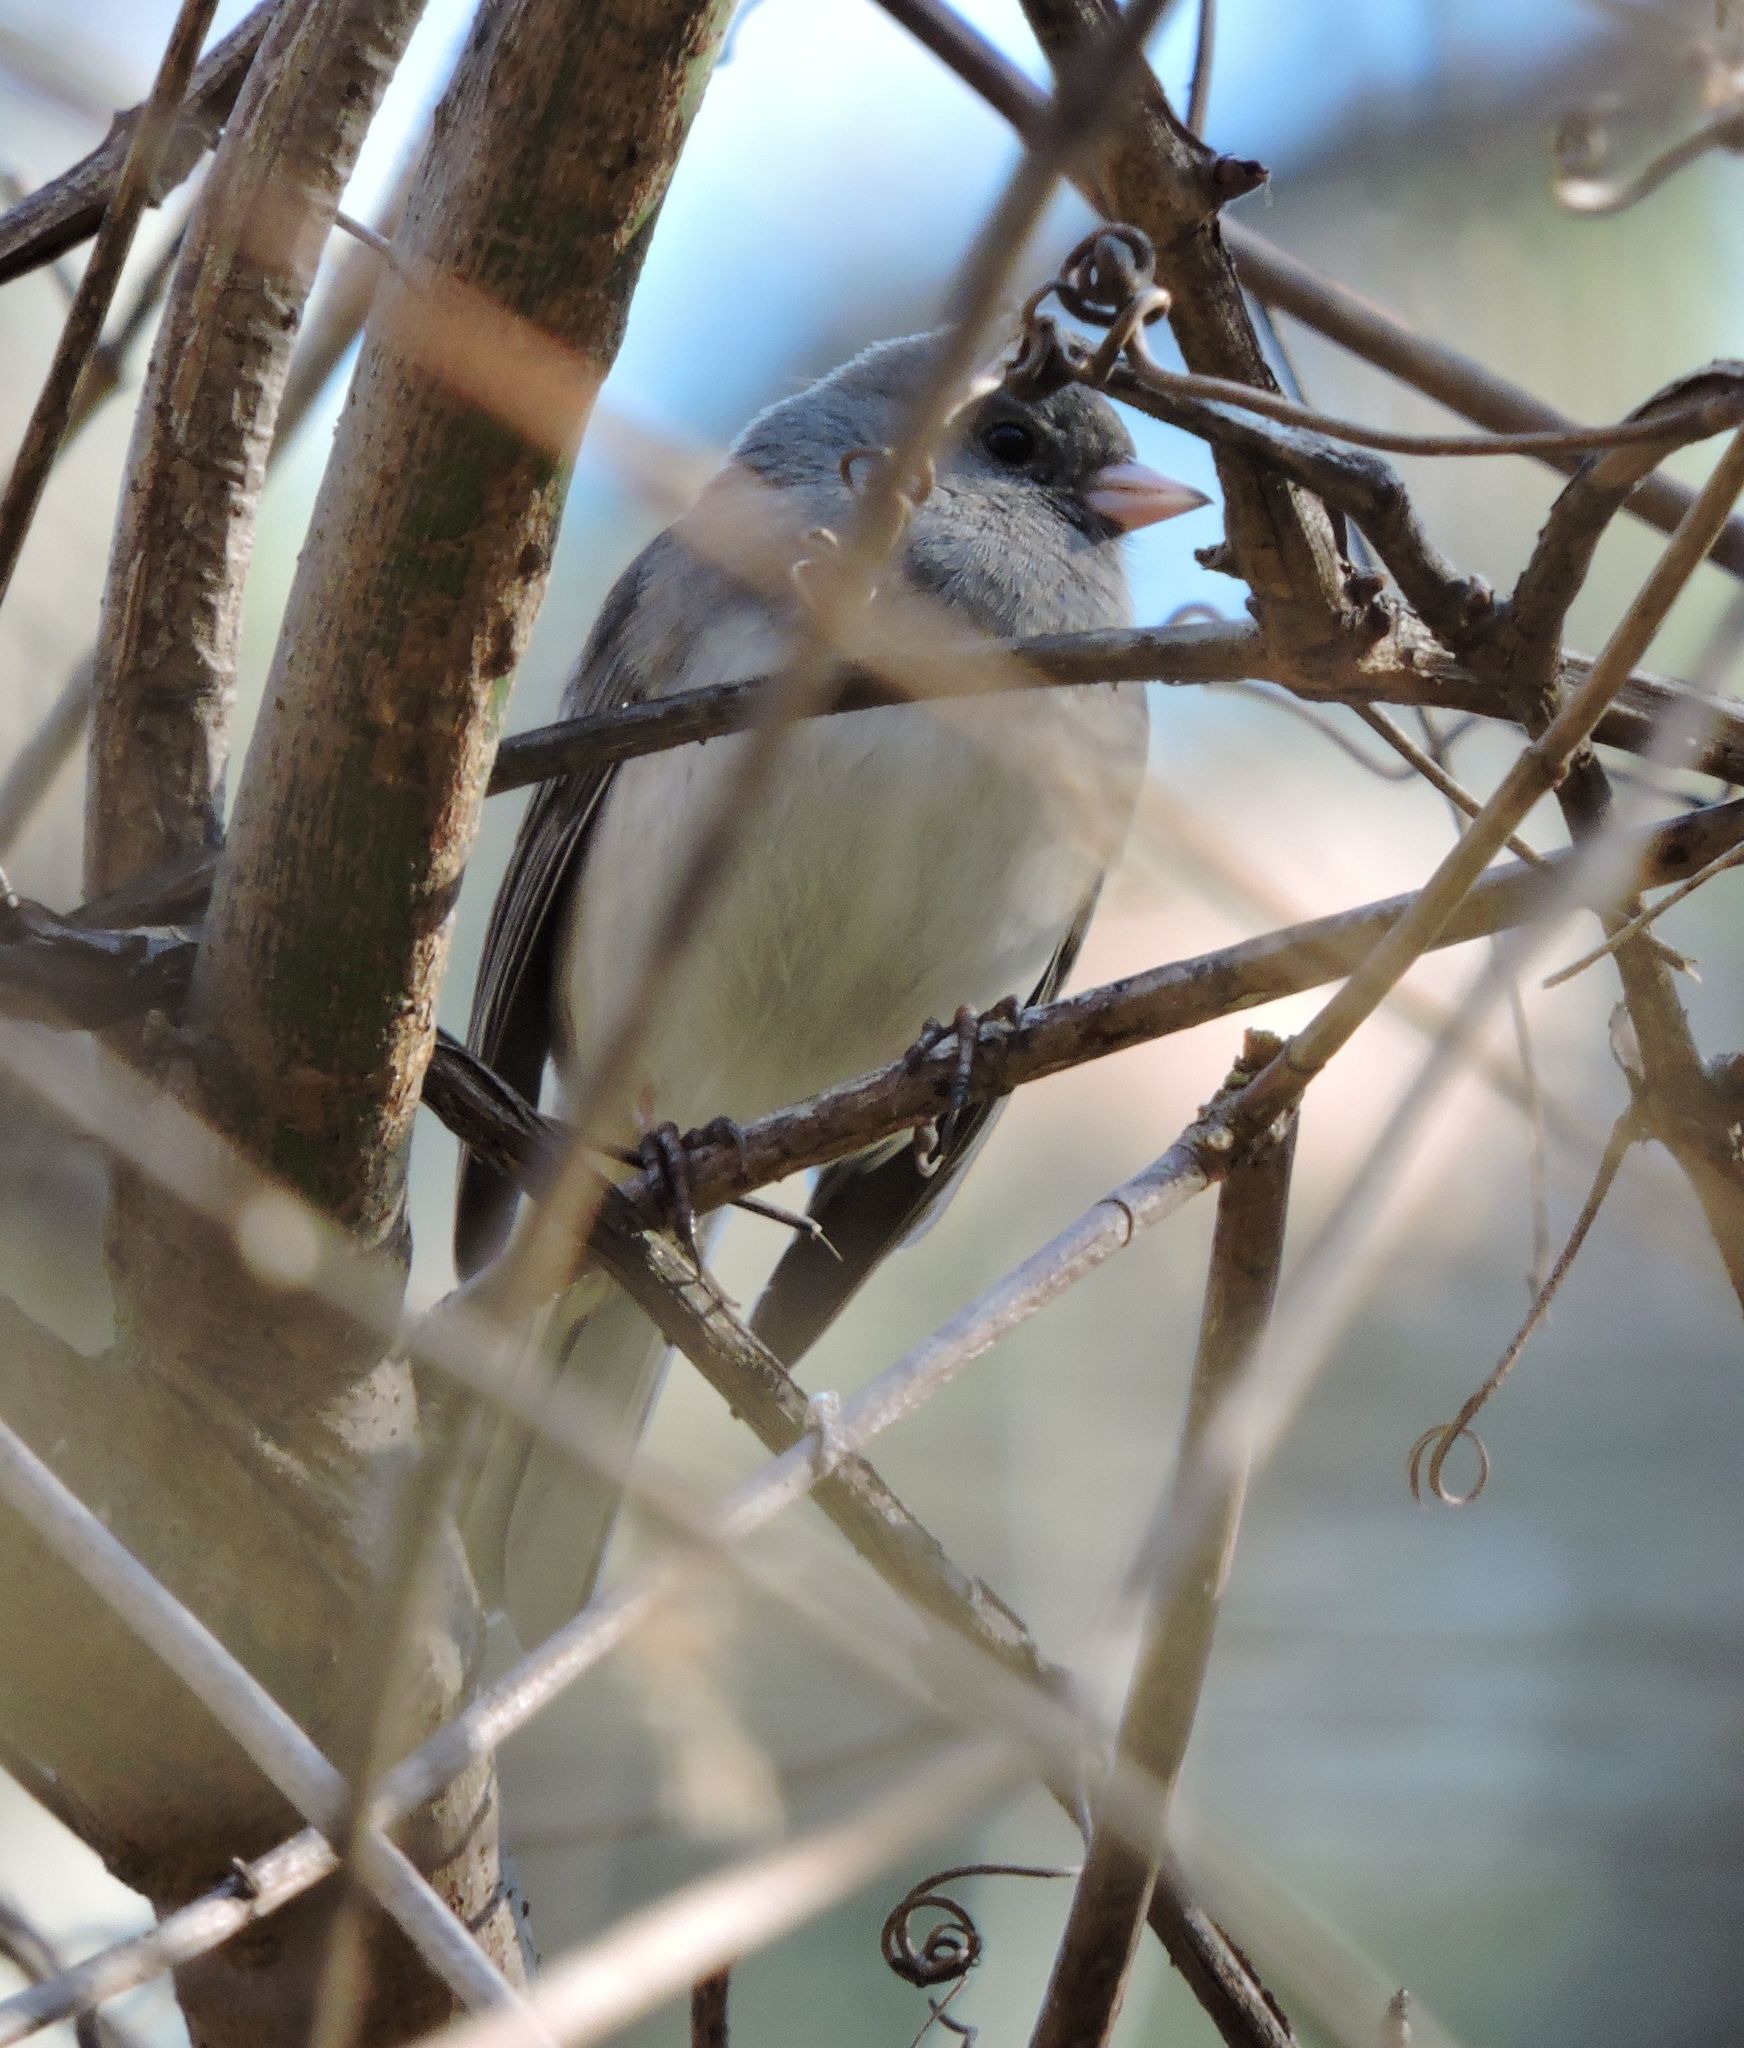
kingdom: Animalia
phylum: Chordata
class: Aves
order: Passeriformes
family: Passerellidae
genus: Junco
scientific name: Junco hyemalis
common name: Dark-eyed junco
